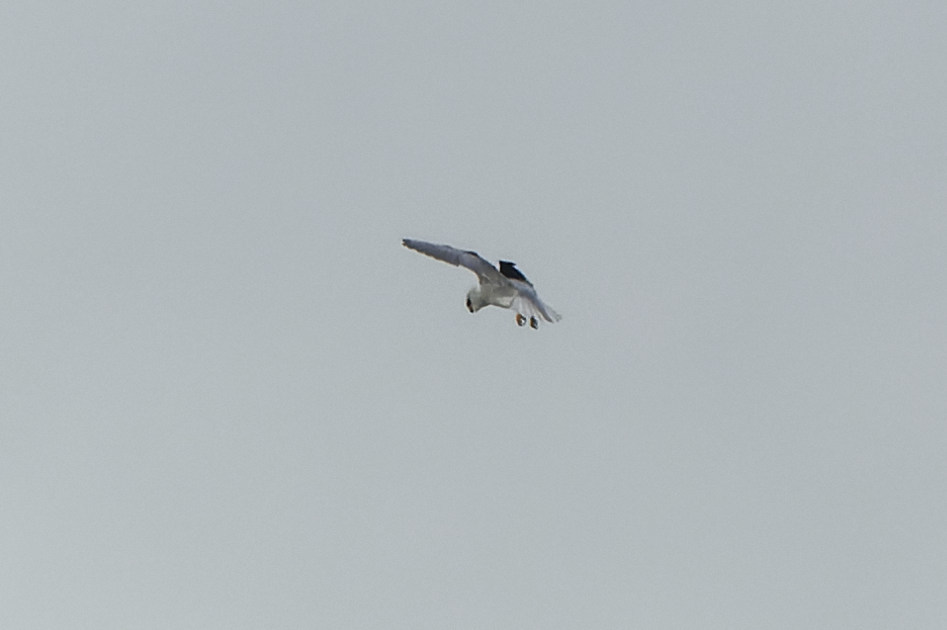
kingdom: Animalia
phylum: Chordata
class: Aves
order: Accipitriformes
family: Accipitridae
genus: Elanus
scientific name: Elanus caeruleus
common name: Black-winged kite
